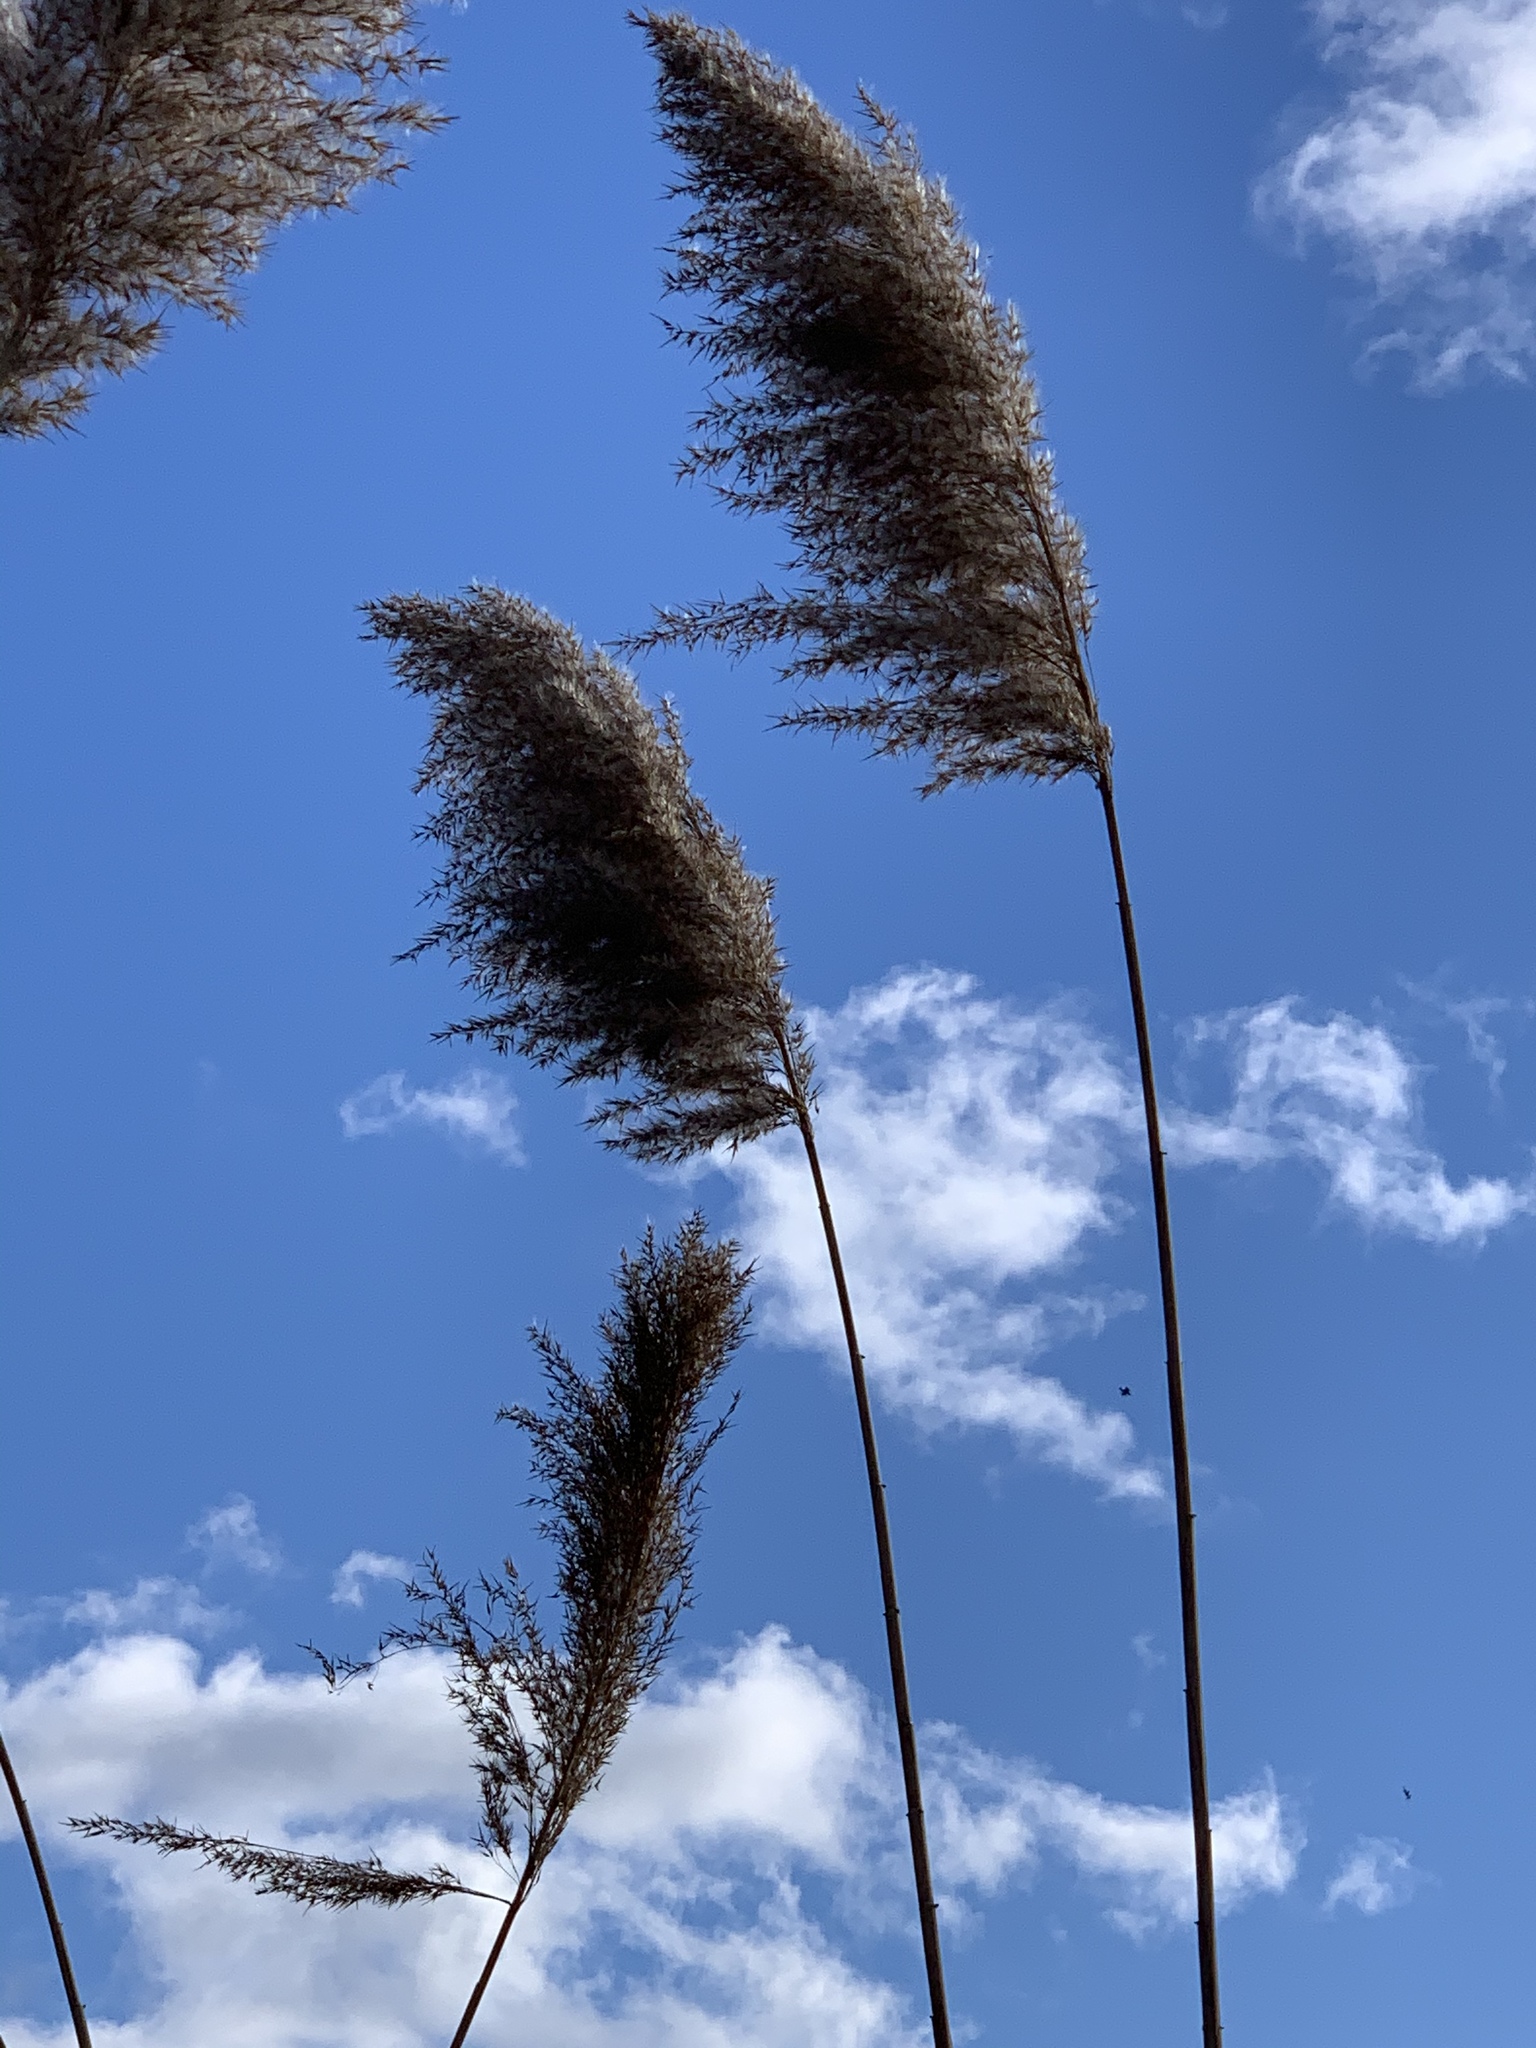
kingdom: Plantae
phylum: Tracheophyta
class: Liliopsida
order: Poales
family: Poaceae
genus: Phragmites
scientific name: Phragmites australis
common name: Common reed
